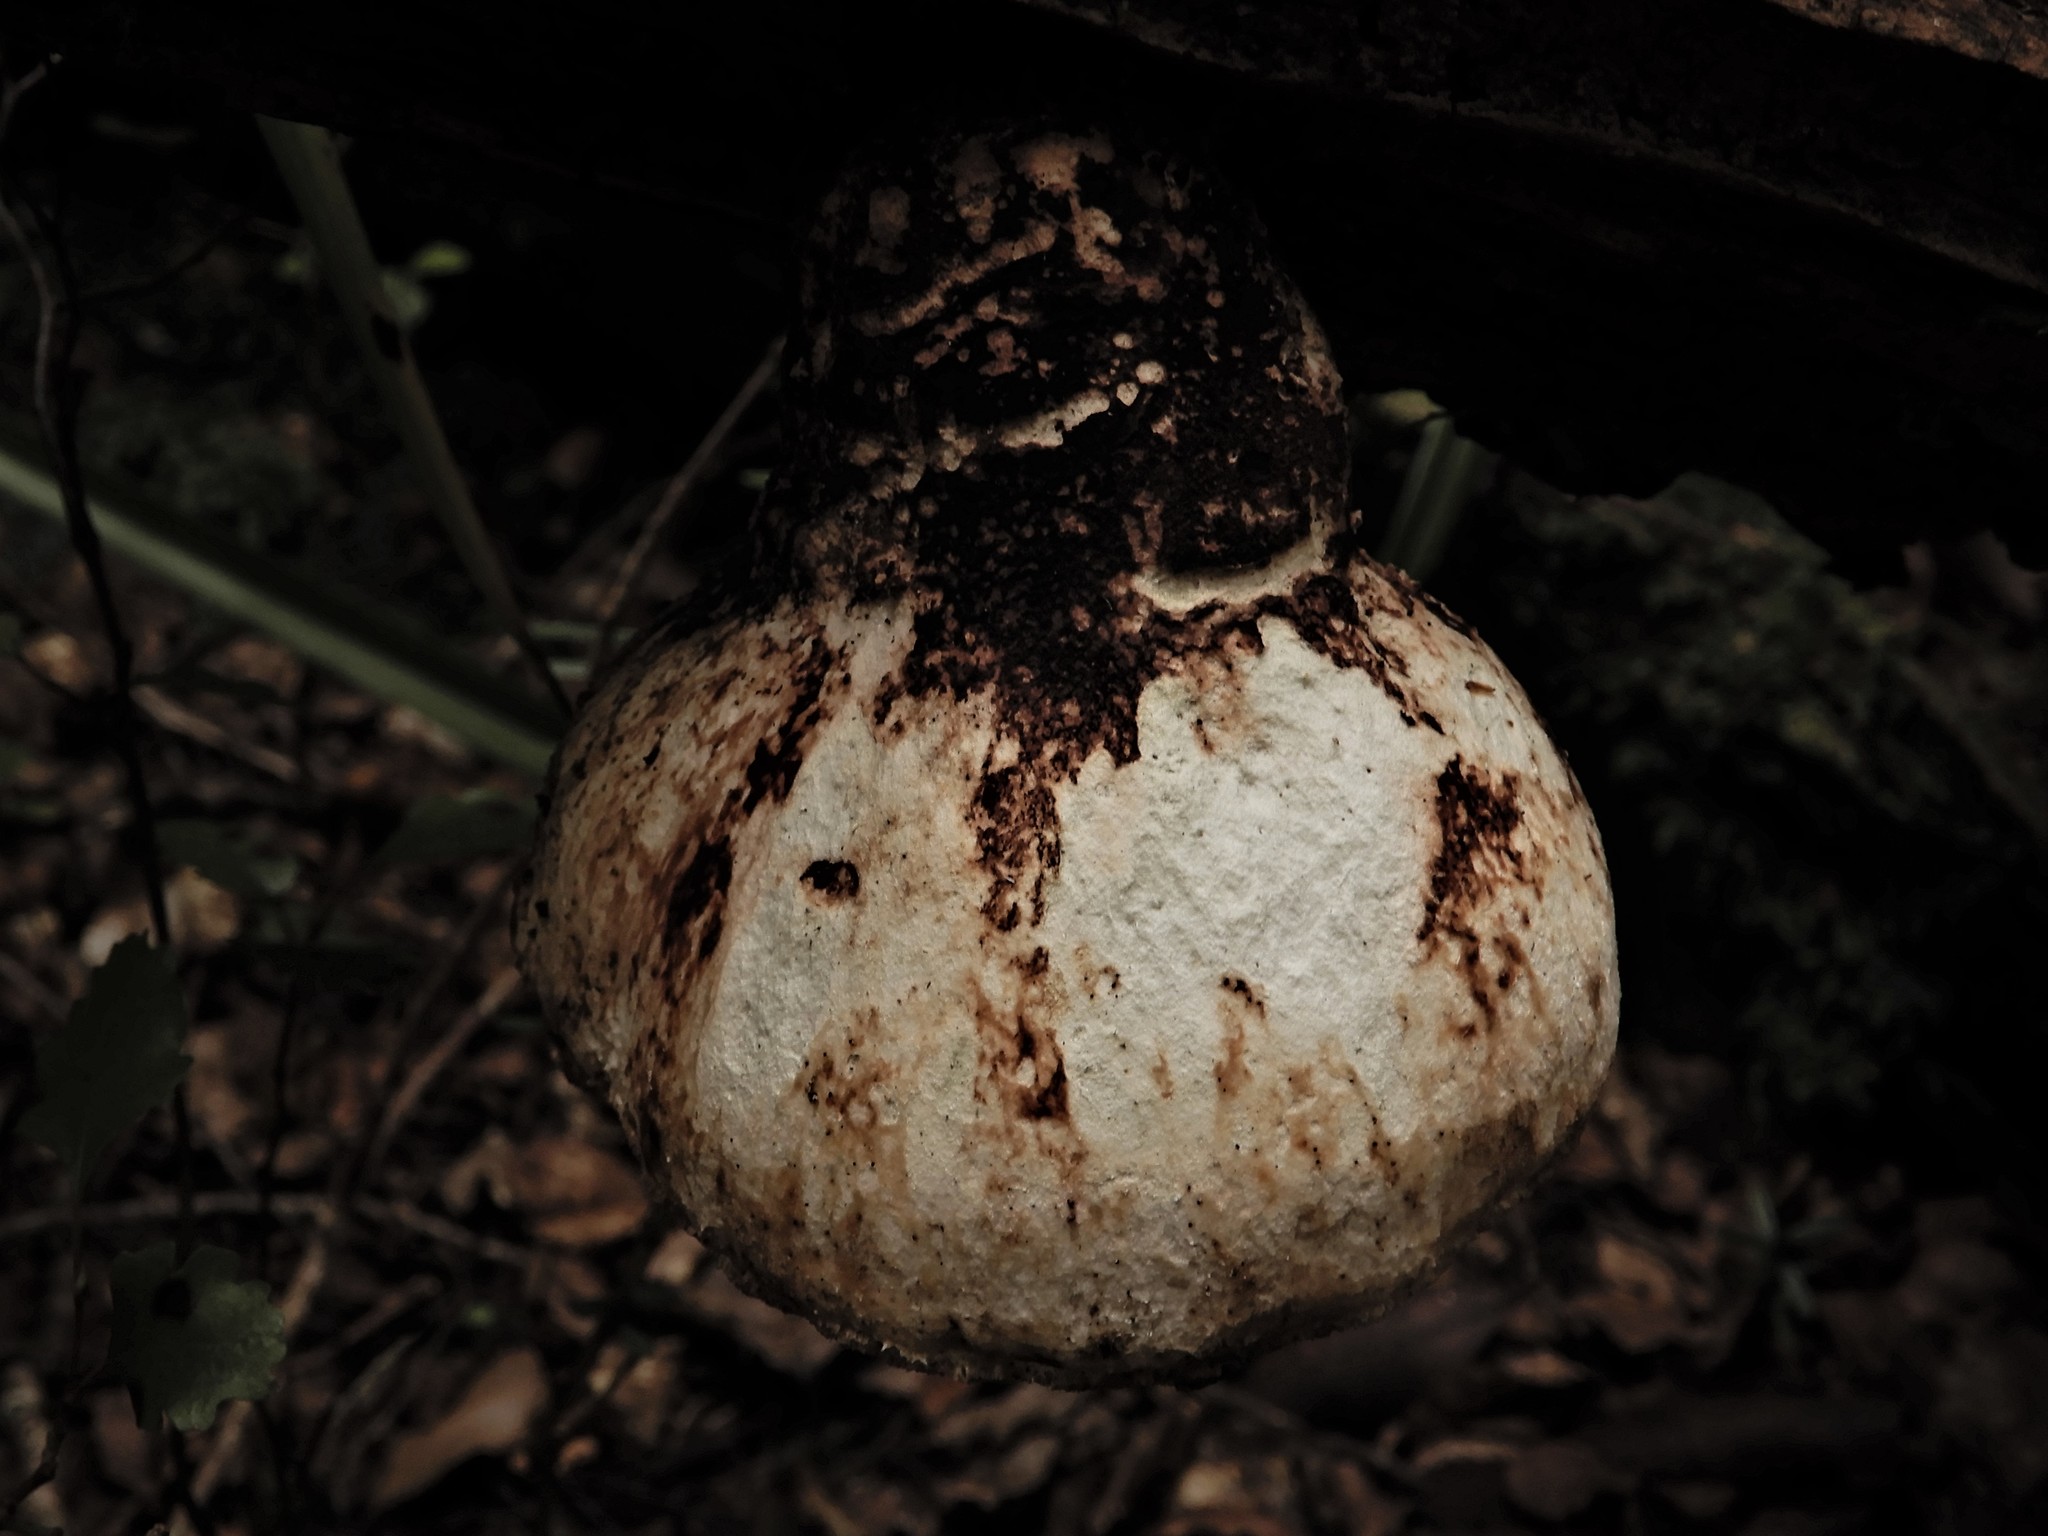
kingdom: Fungi
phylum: Basidiomycota
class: Agaricomycetes
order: Polyporales
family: Laetiporaceae
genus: Laetiporus
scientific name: Laetiporus portentosus
